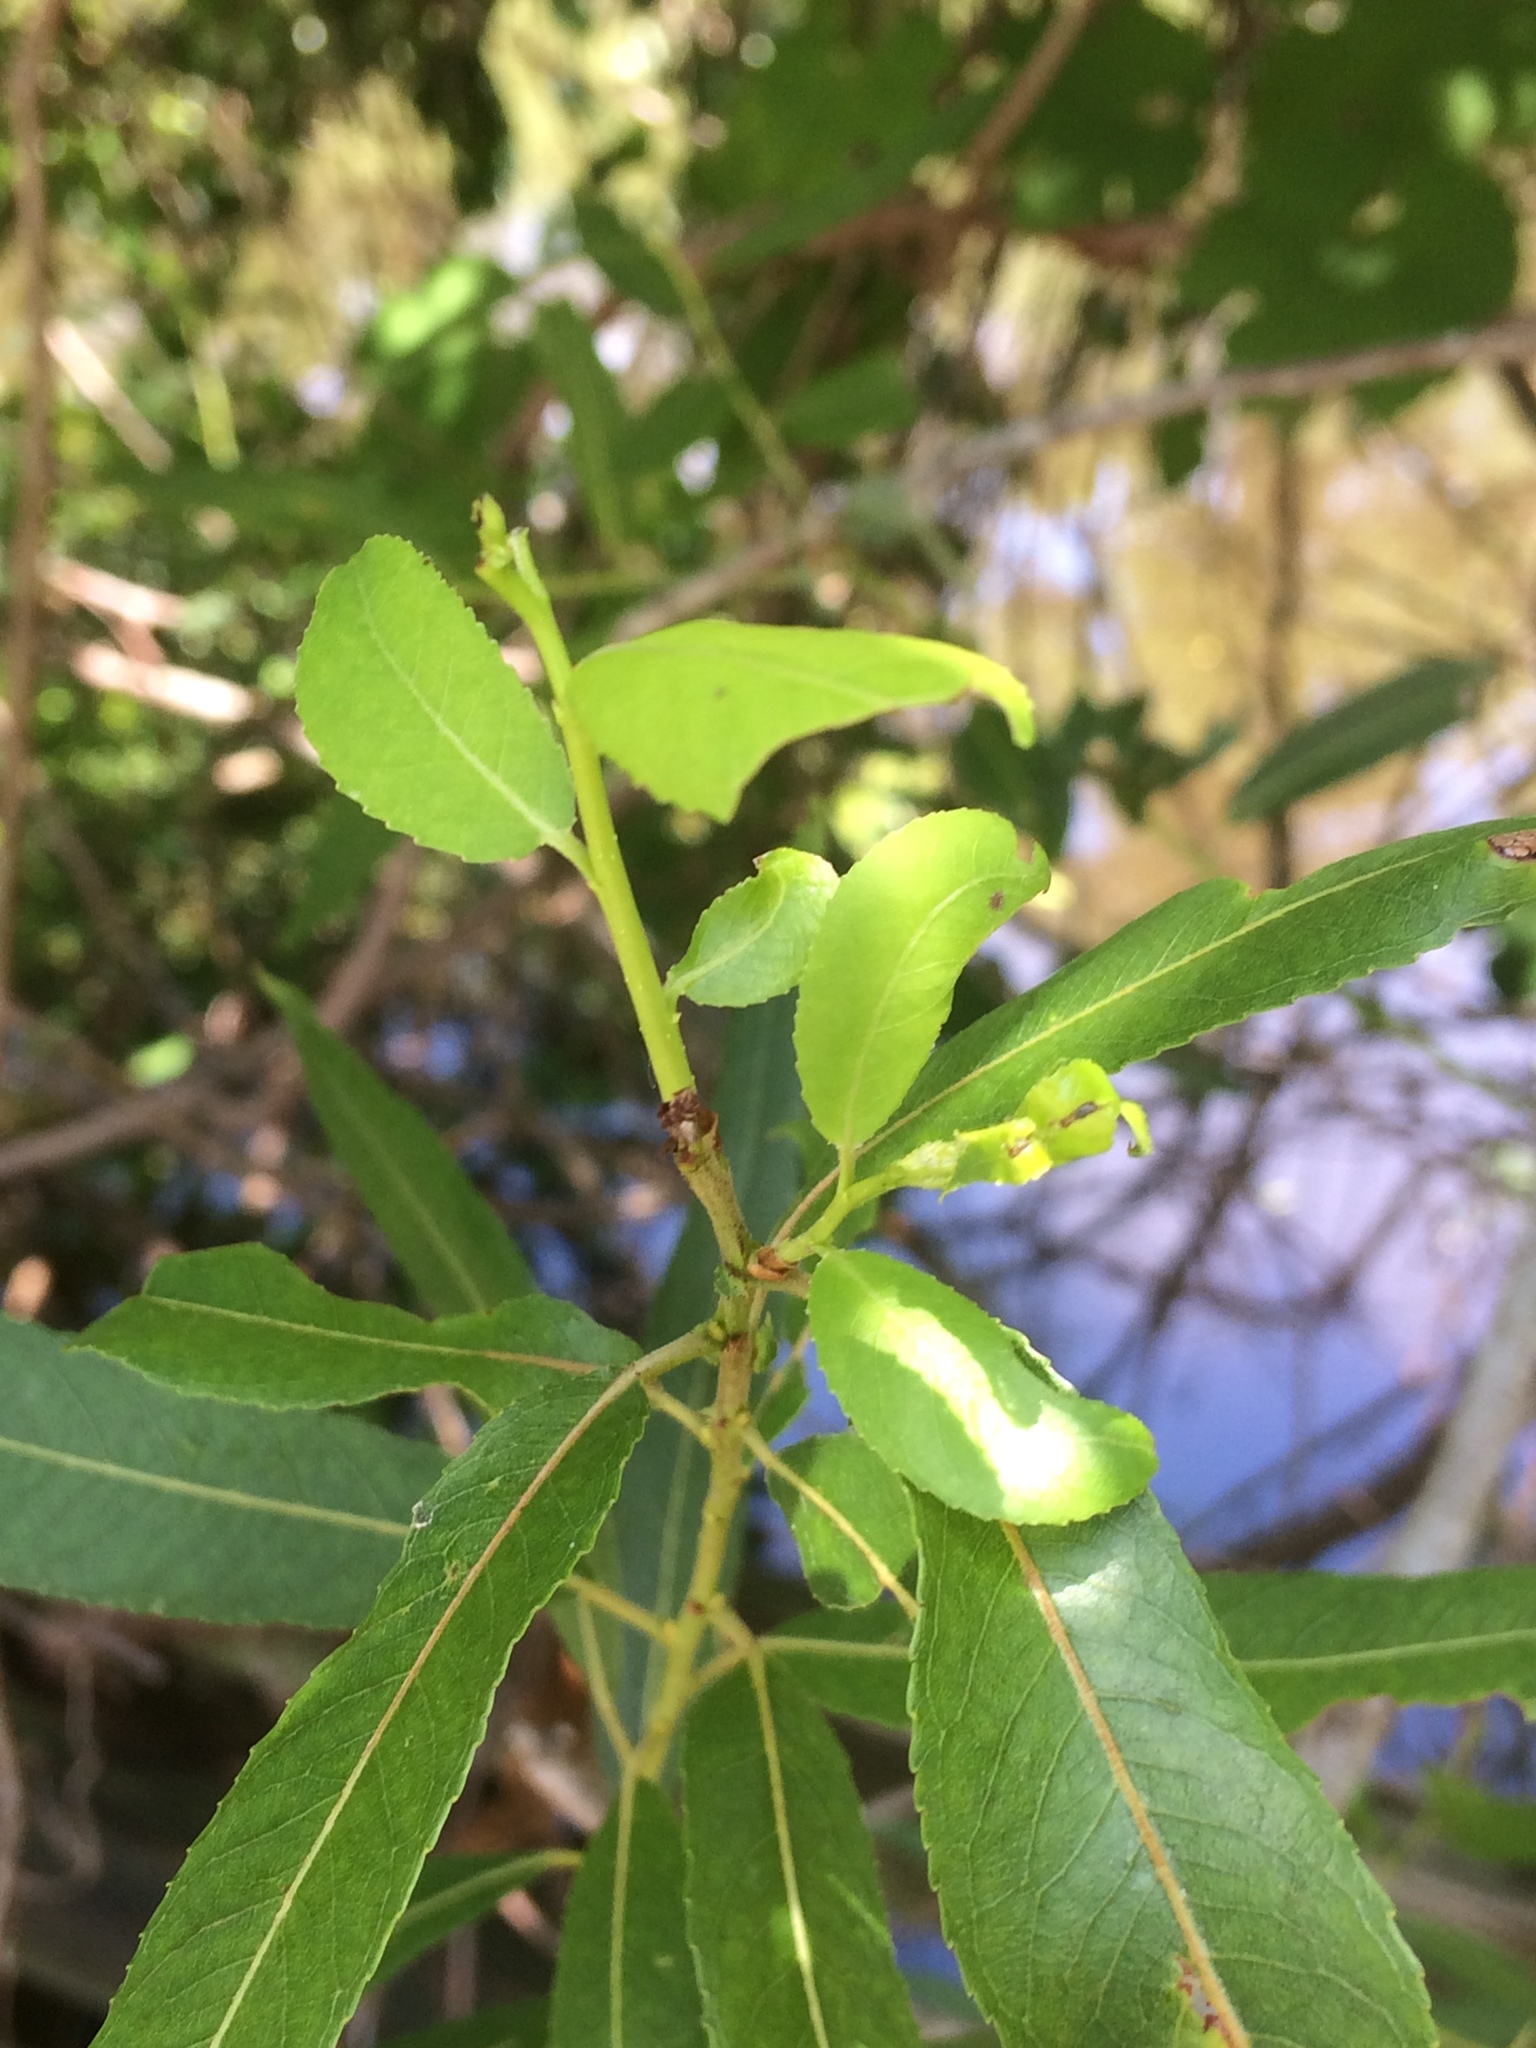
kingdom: Plantae
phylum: Tracheophyta
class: Magnoliopsida
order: Malpighiales
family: Salicaceae
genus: Salix
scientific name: Salix nigra
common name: Black willow
